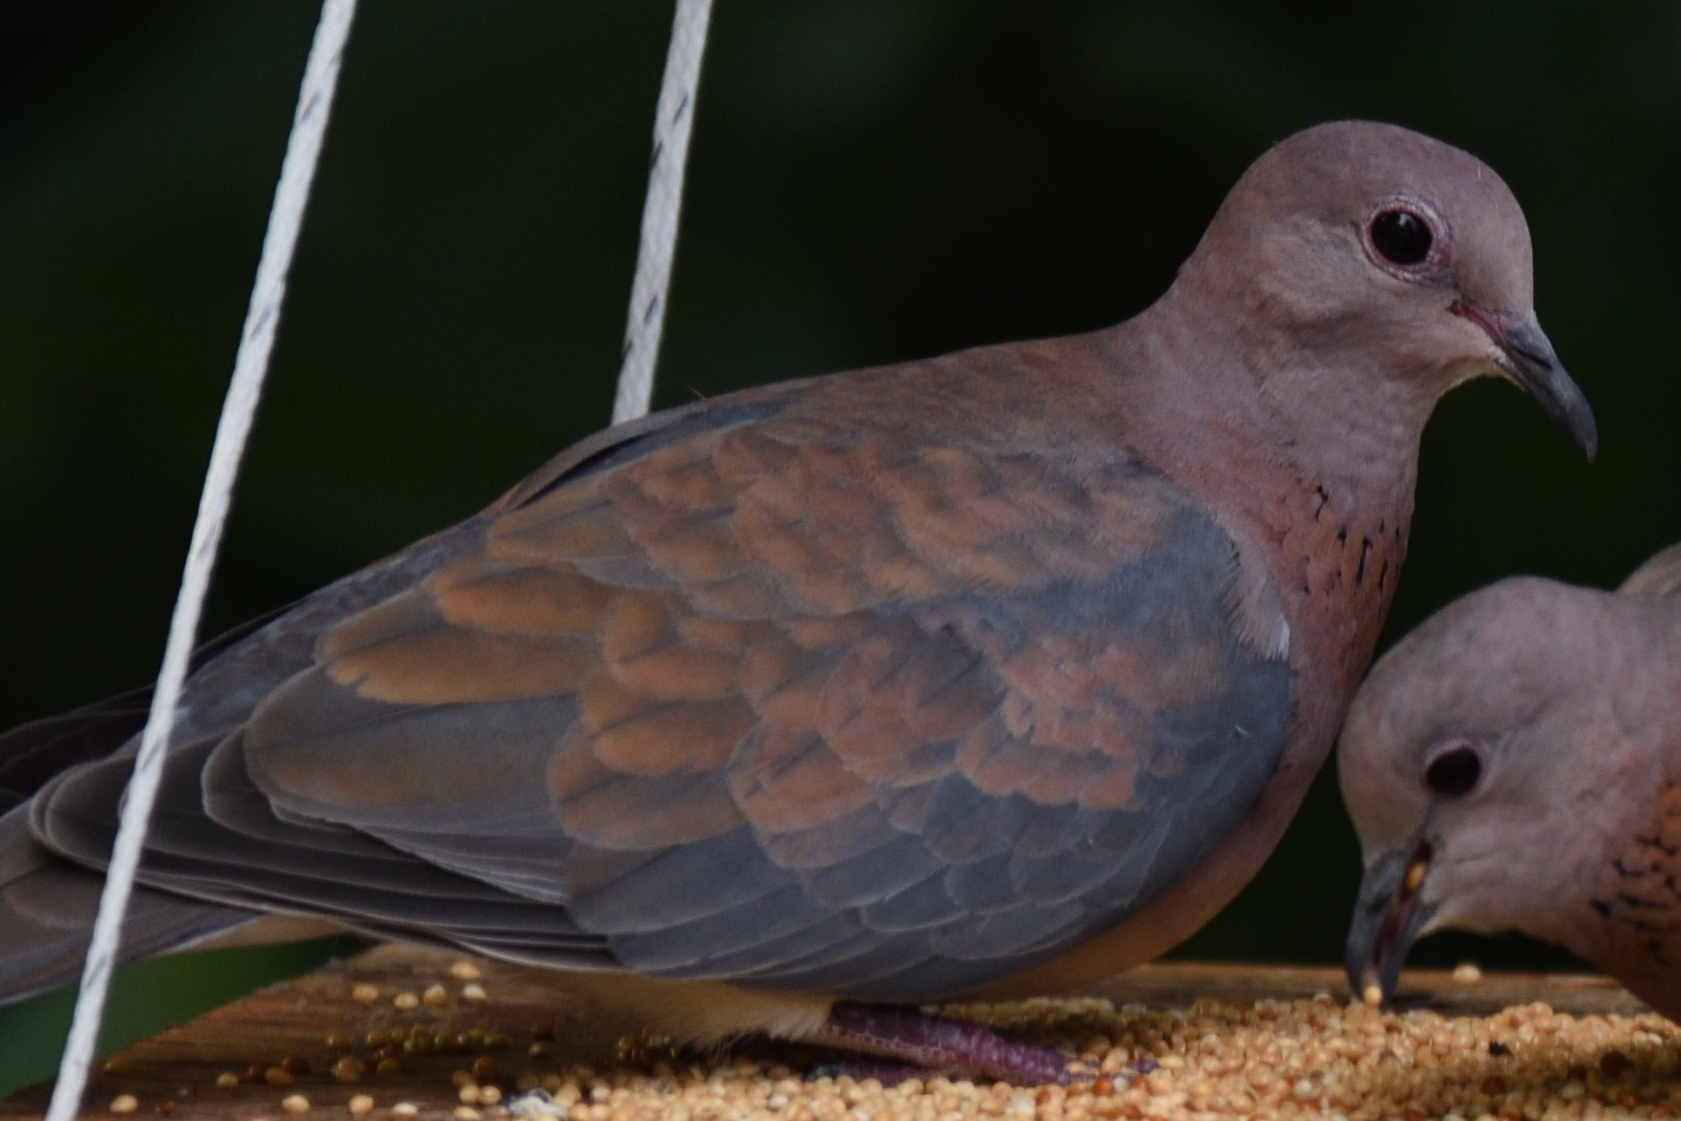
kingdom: Animalia
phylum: Chordata
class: Aves
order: Columbiformes
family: Columbidae
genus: Spilopelia
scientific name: Spilopelia senegalensis
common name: Laughing dove
